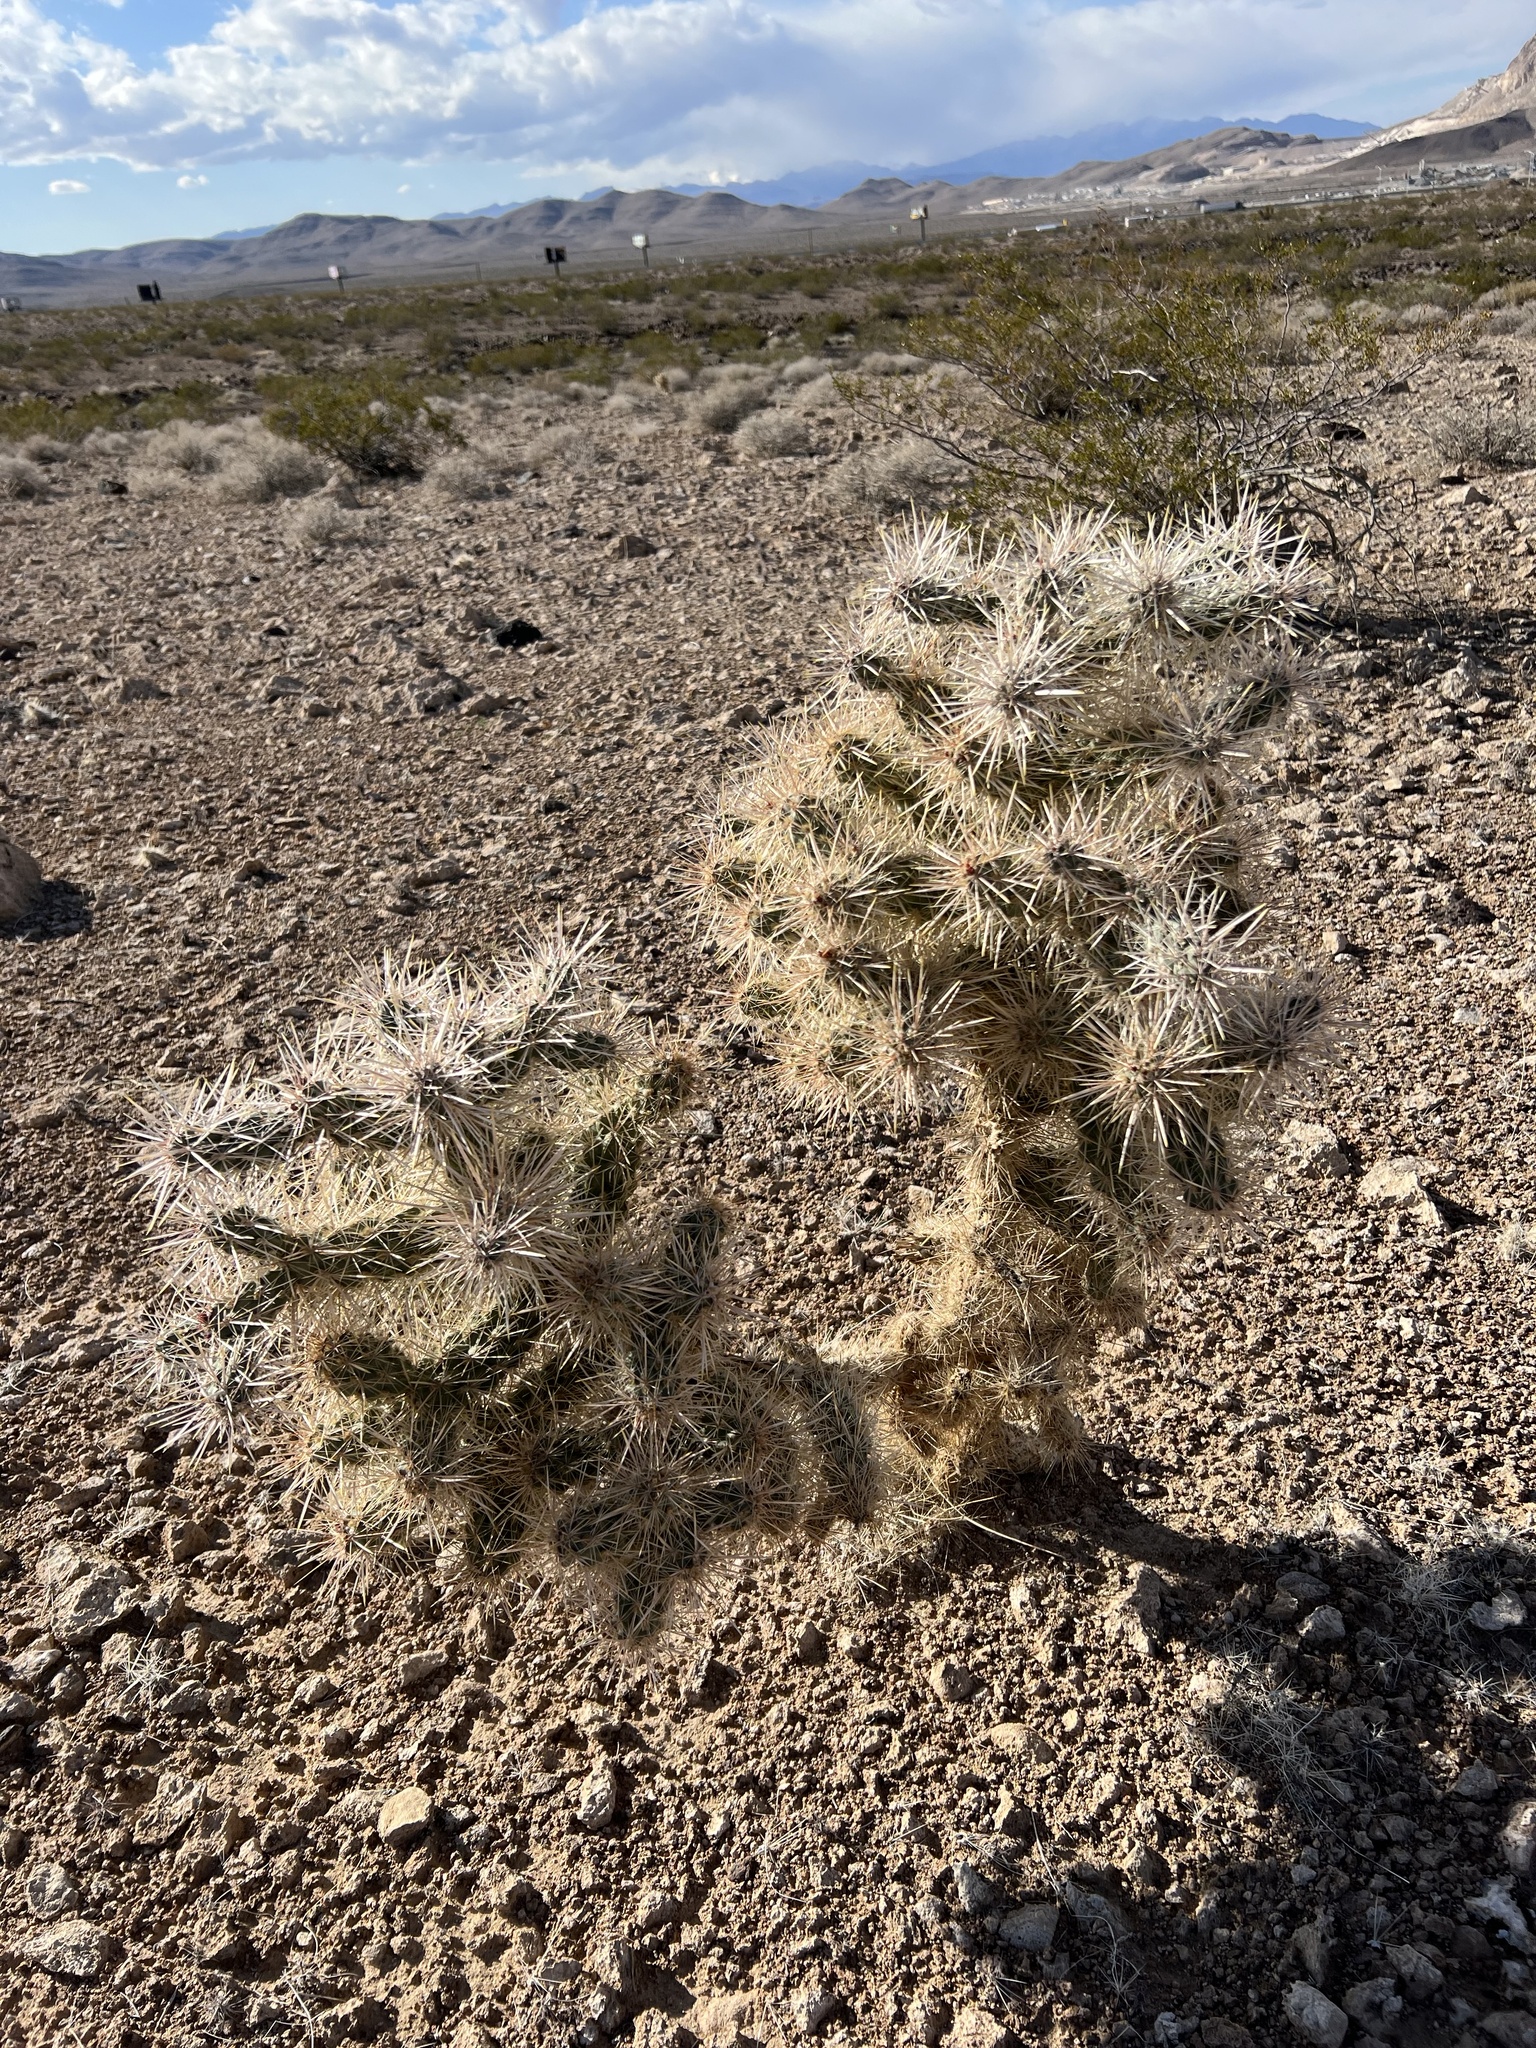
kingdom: Plantae
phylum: Tracheophyta
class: Magnoliopsida
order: Caryophyllales
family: Cactaceae
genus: Cylindropuntia
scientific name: Cylindropuntia echinocarpa
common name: Ground cholla
